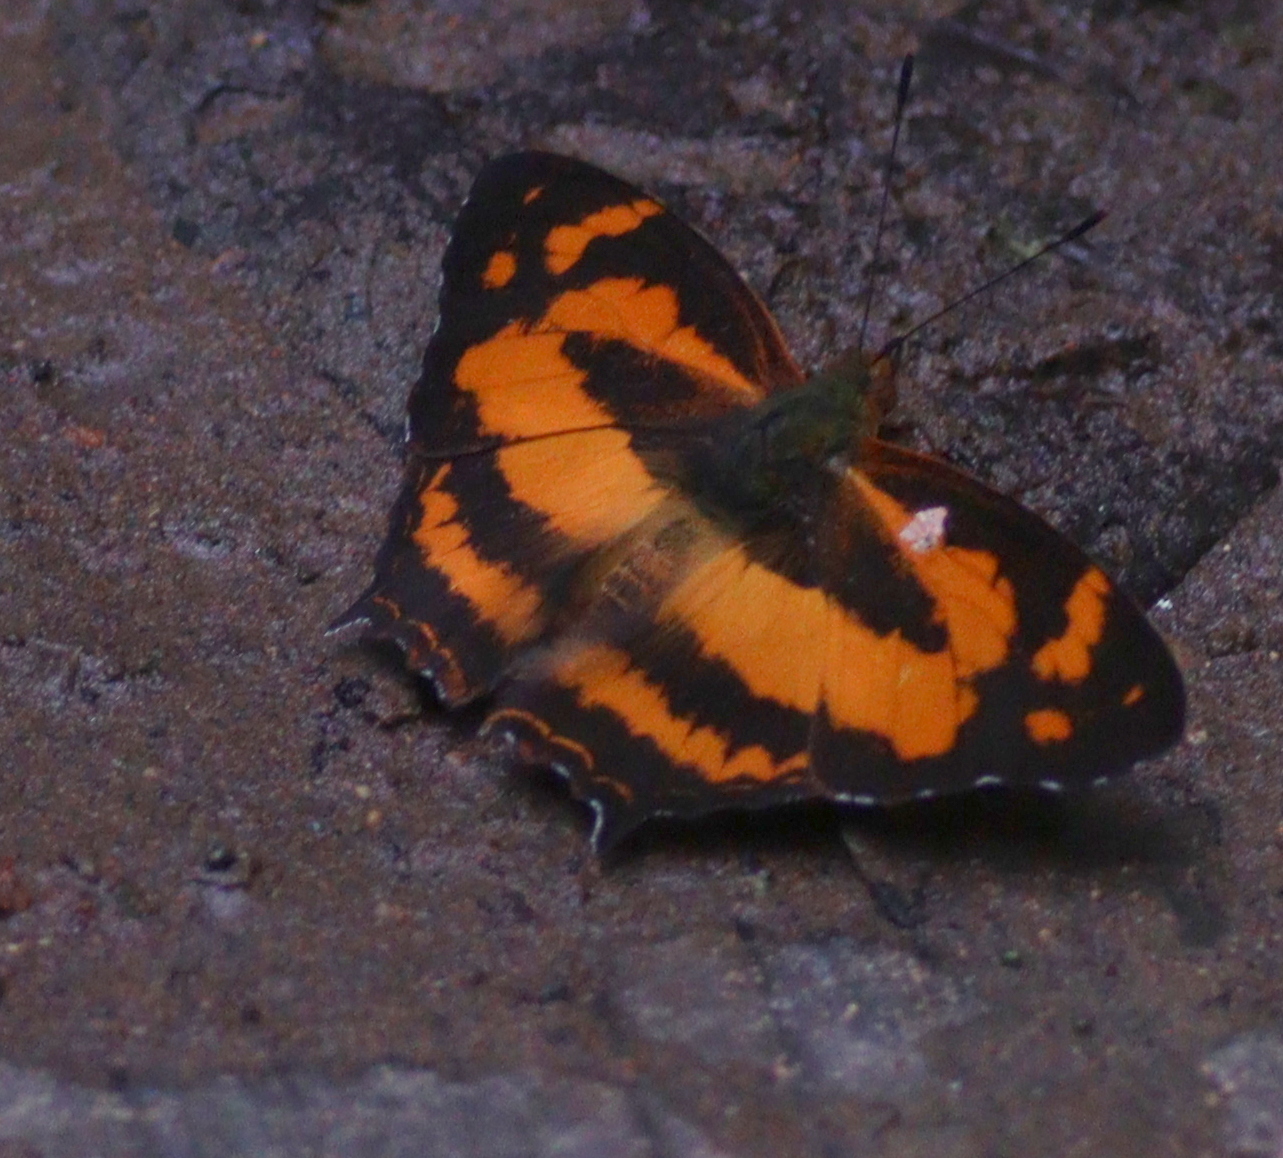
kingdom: Animalia
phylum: Arthropoda
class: Insecta
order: Lepidoptera
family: Nymphalidae
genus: Symbrenthia
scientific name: Symbrenthia hypselis
